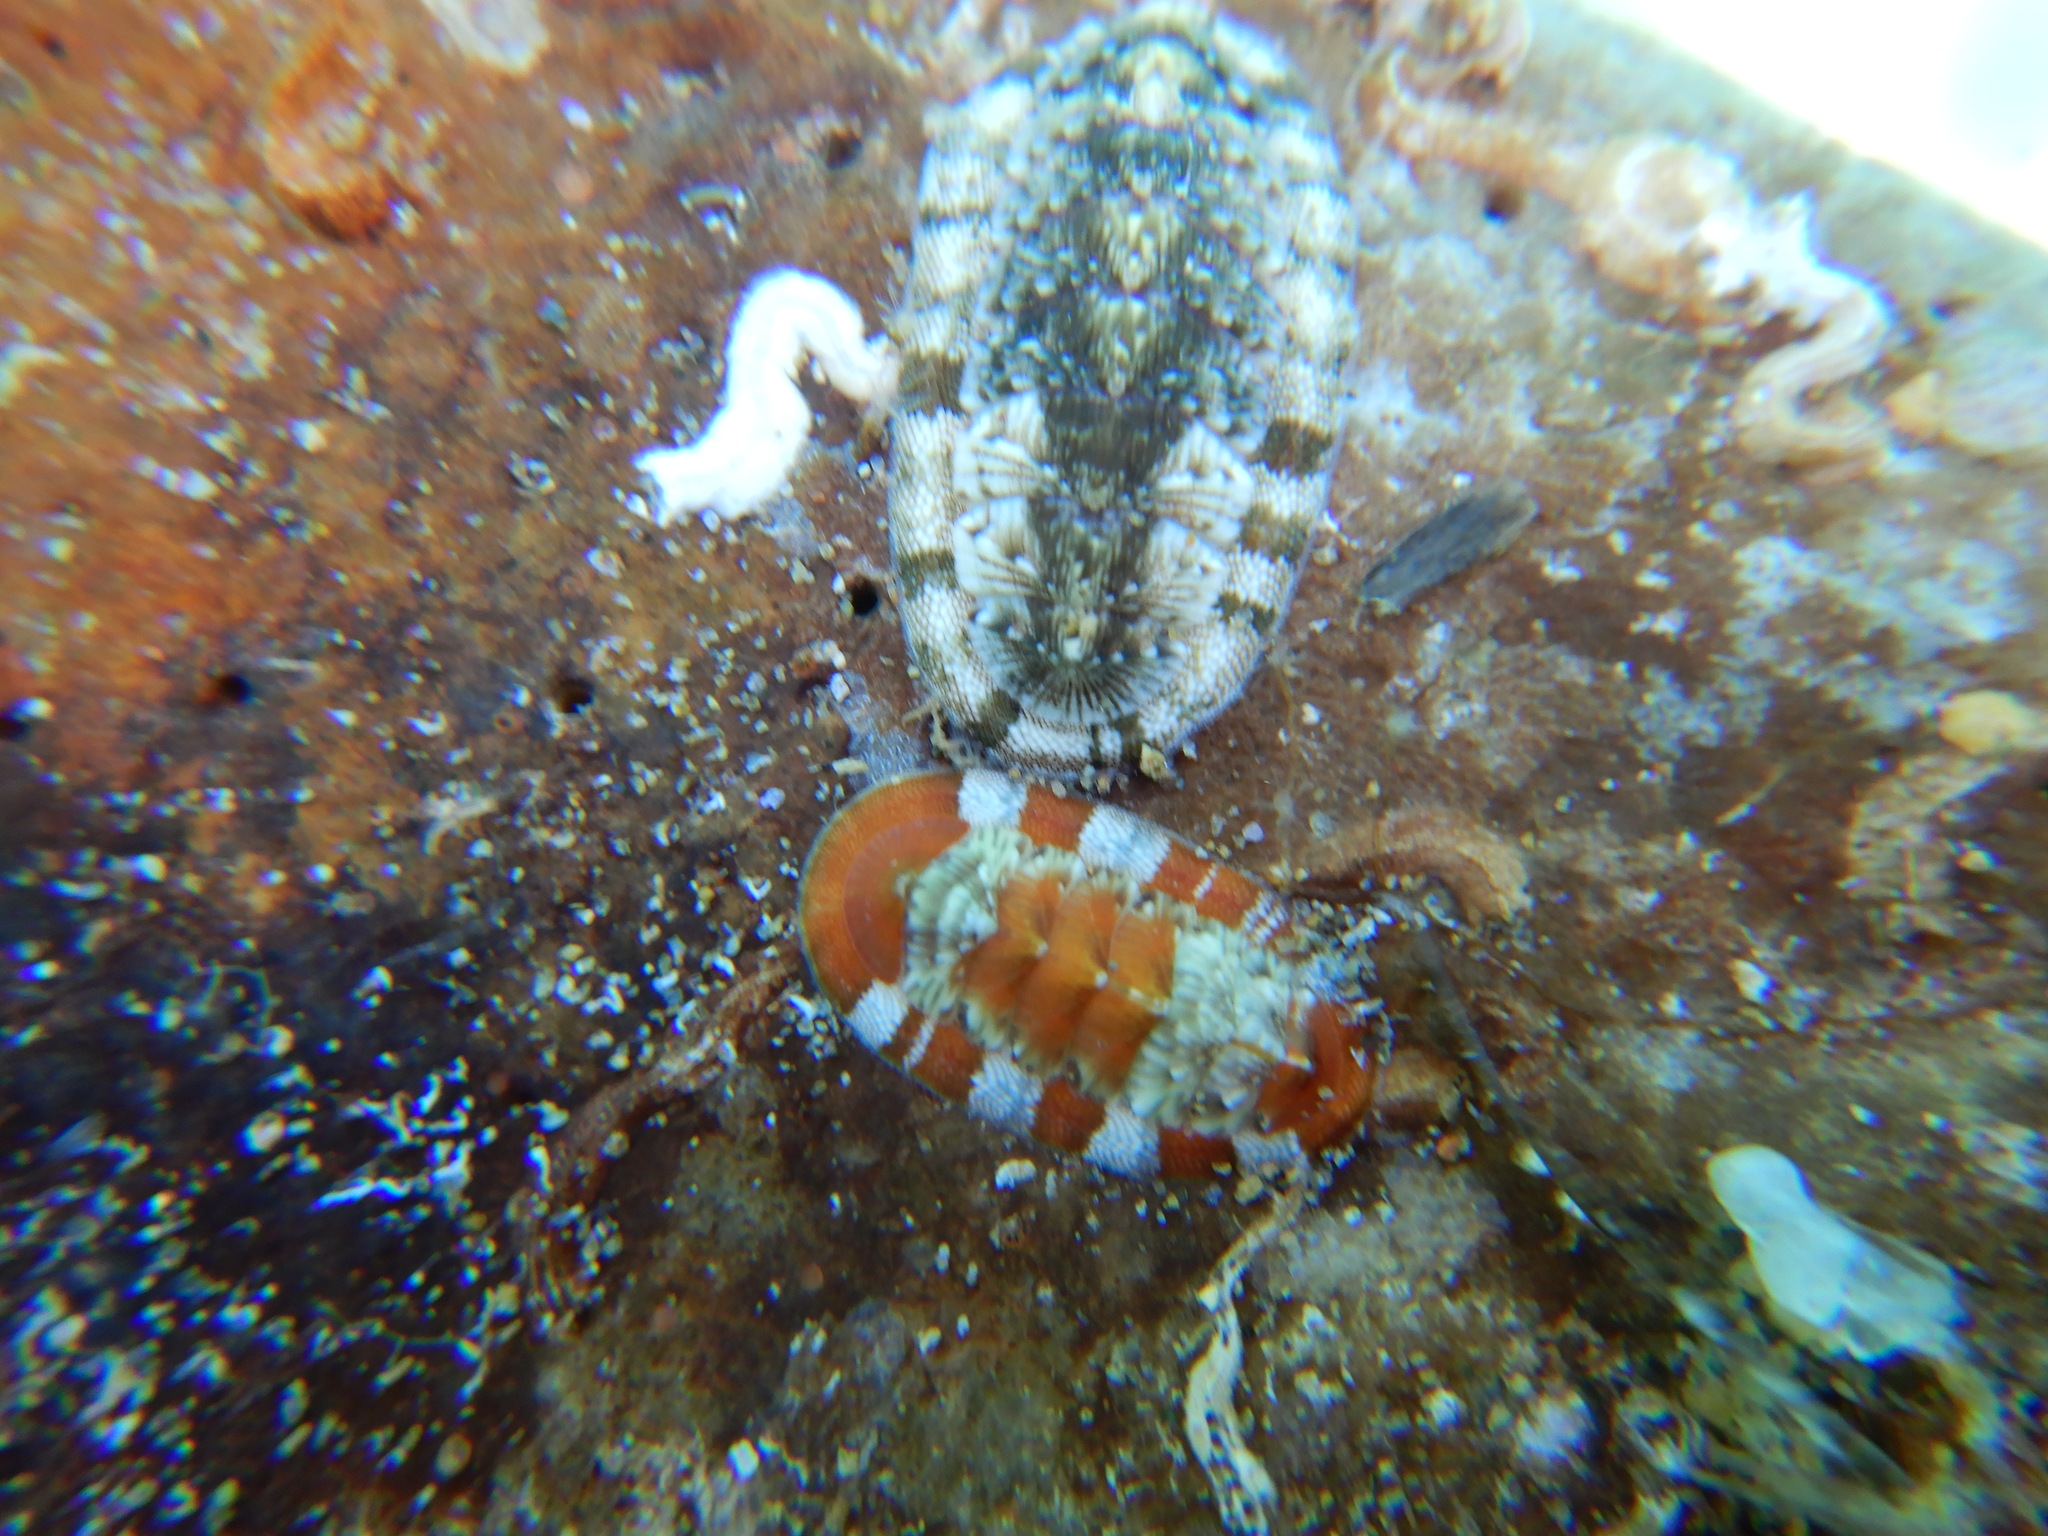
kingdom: Animalia
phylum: Mollusca
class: Polyplacophora
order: Chitonida
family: Chitonidae
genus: Rhyssoplax
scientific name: Rhyssoplax olivacea
